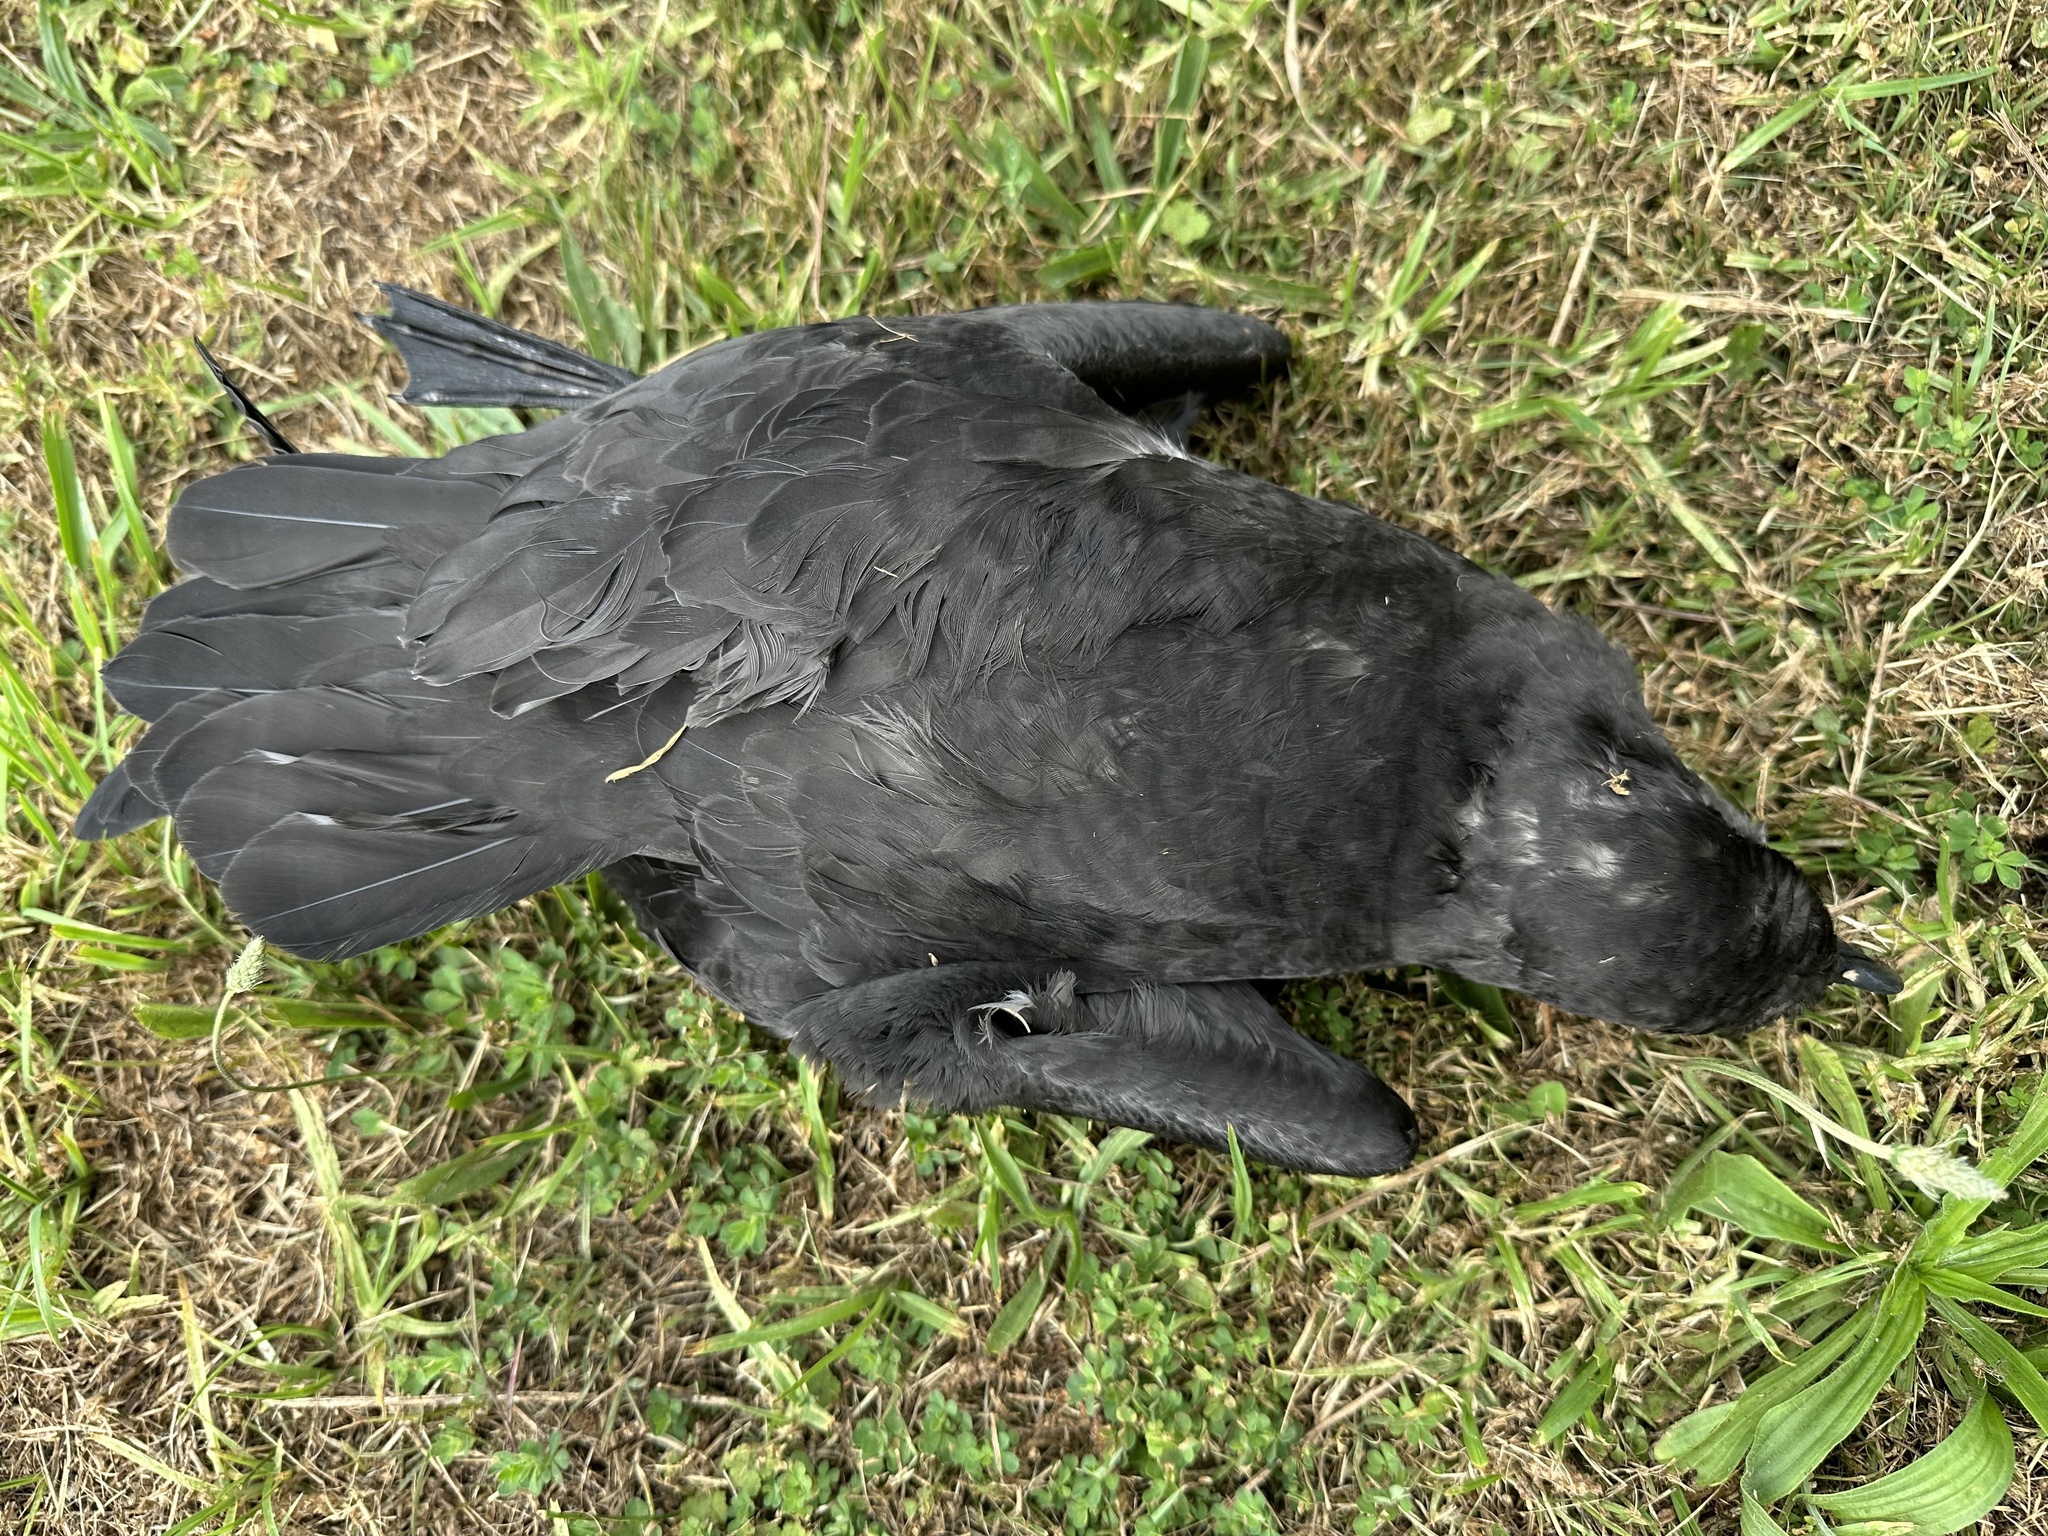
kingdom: Animalia
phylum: Chordata
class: Aves
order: Procellariiformes
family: Procellariidae
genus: Pterodroma
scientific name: Pterodroma macroptera
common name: Great-winged petrel
